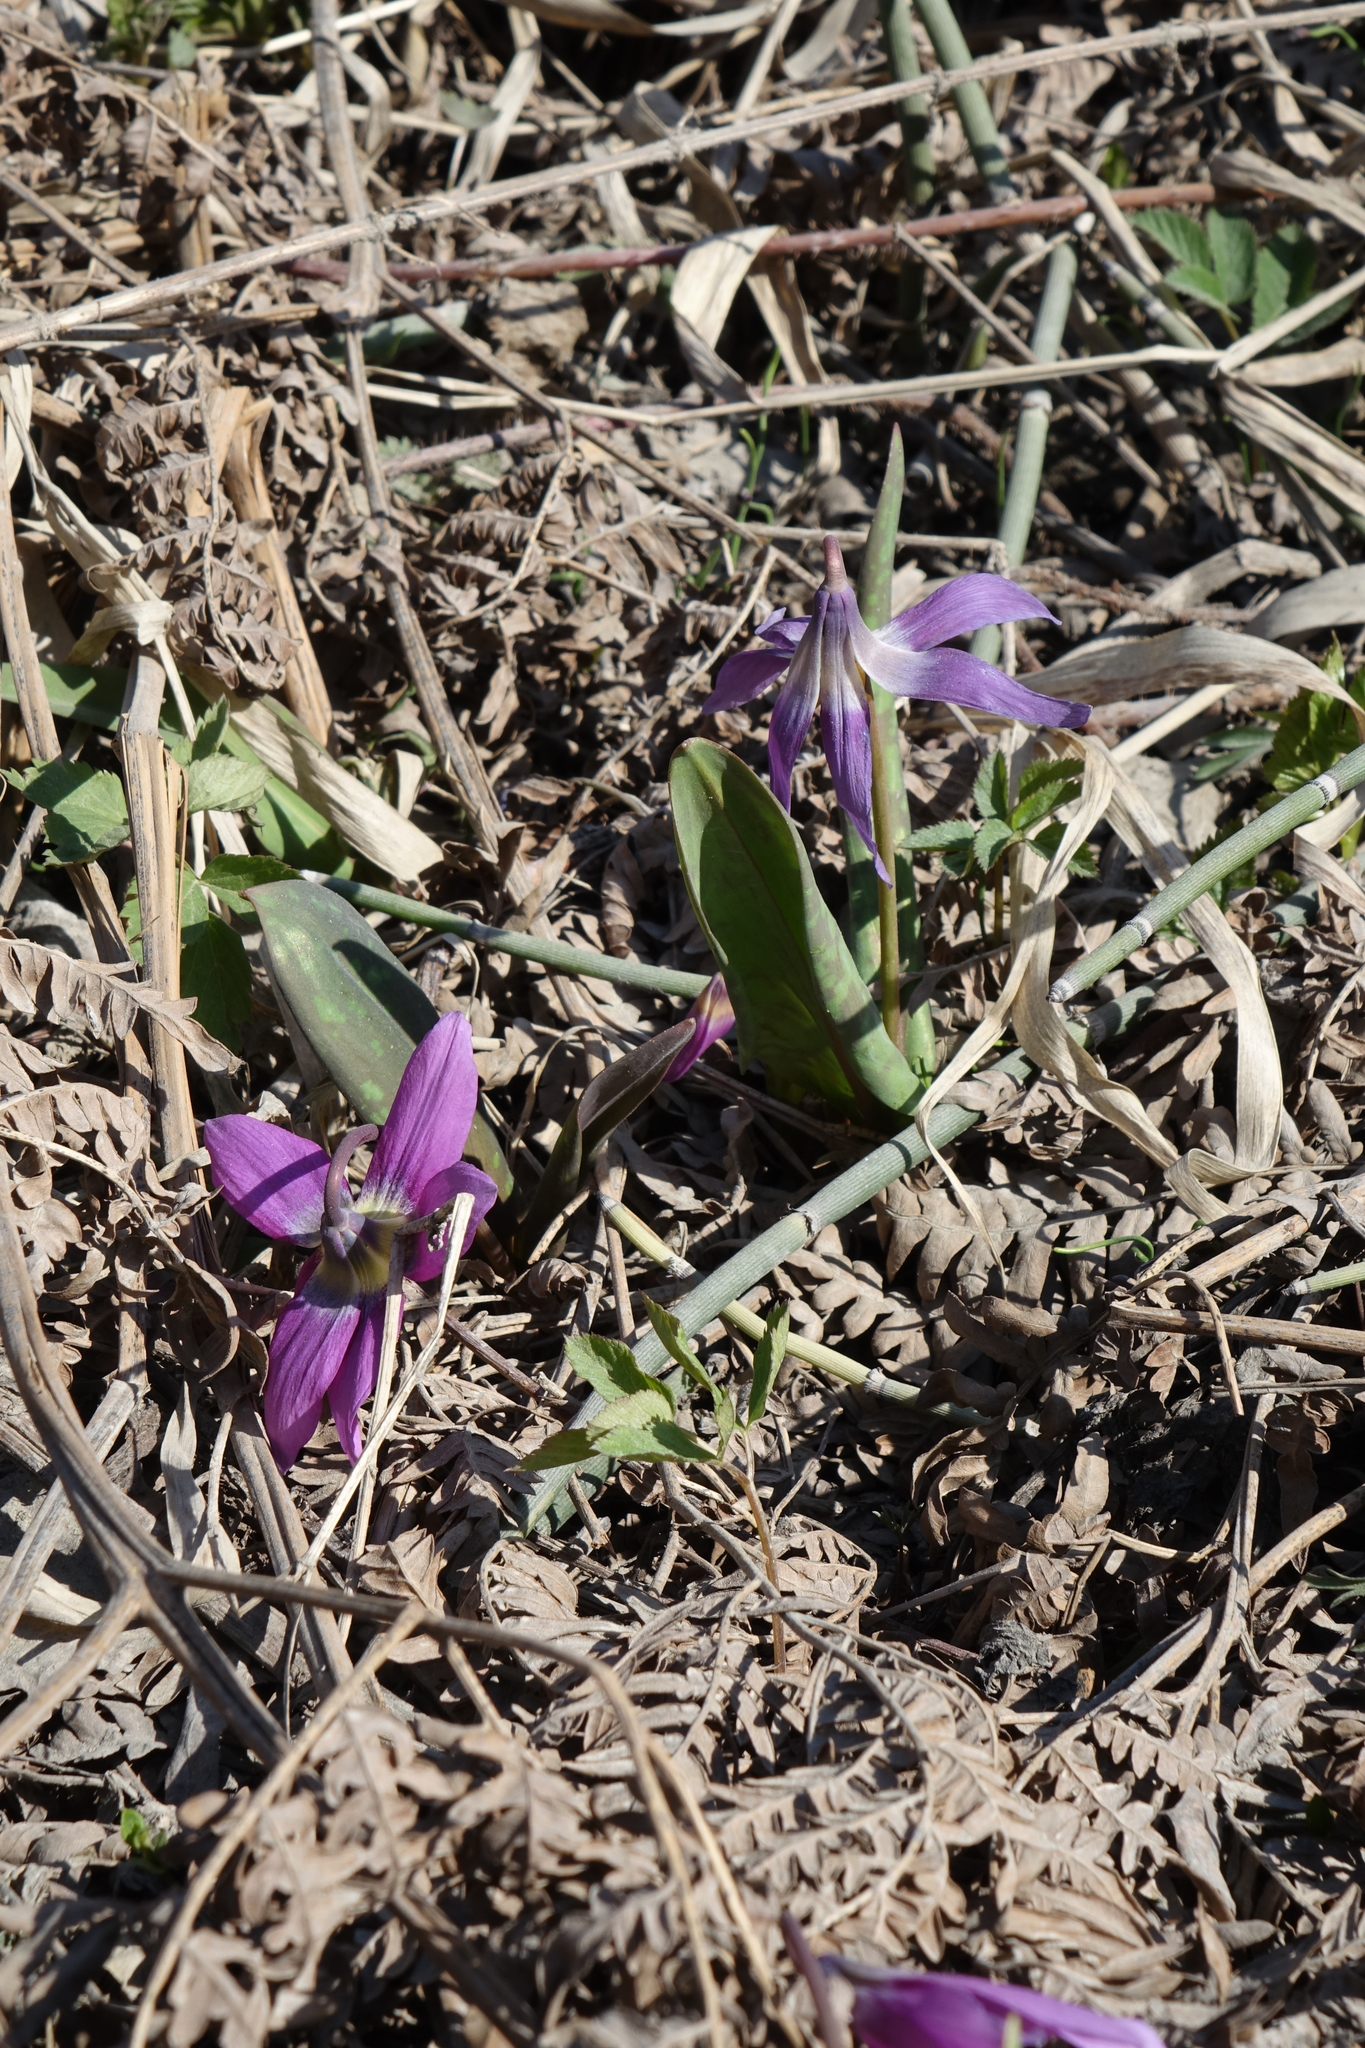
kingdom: Plantae
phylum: Tracheophyta
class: Liliopsida
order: Liliales
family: Liliaceae
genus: Erythronium
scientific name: Erythronium sibiricum
